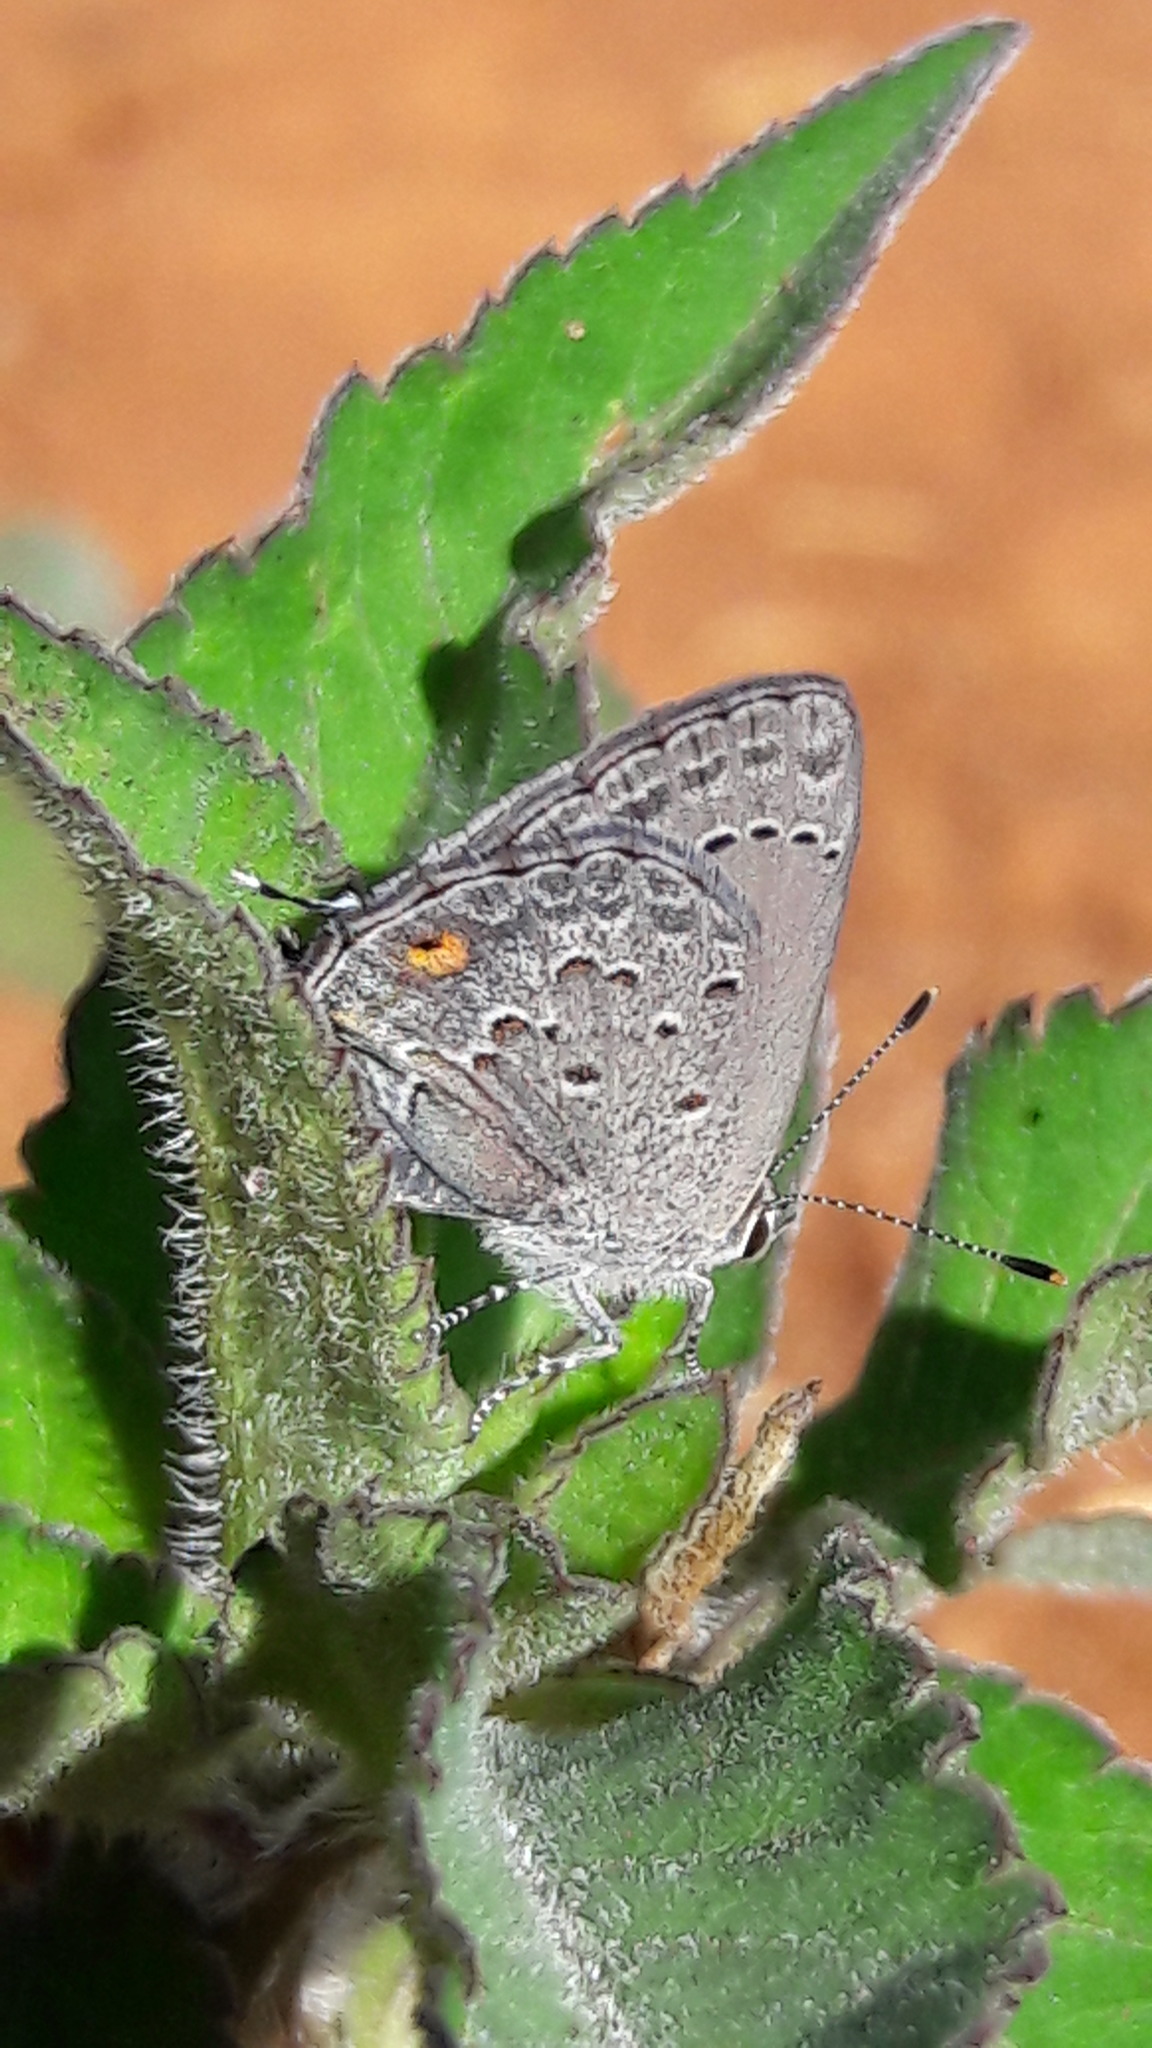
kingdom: Animalia
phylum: Arthropoda
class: Insecta
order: Lepidoptera
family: Lycaenidae
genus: Strymon
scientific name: Strymon eurytulus
